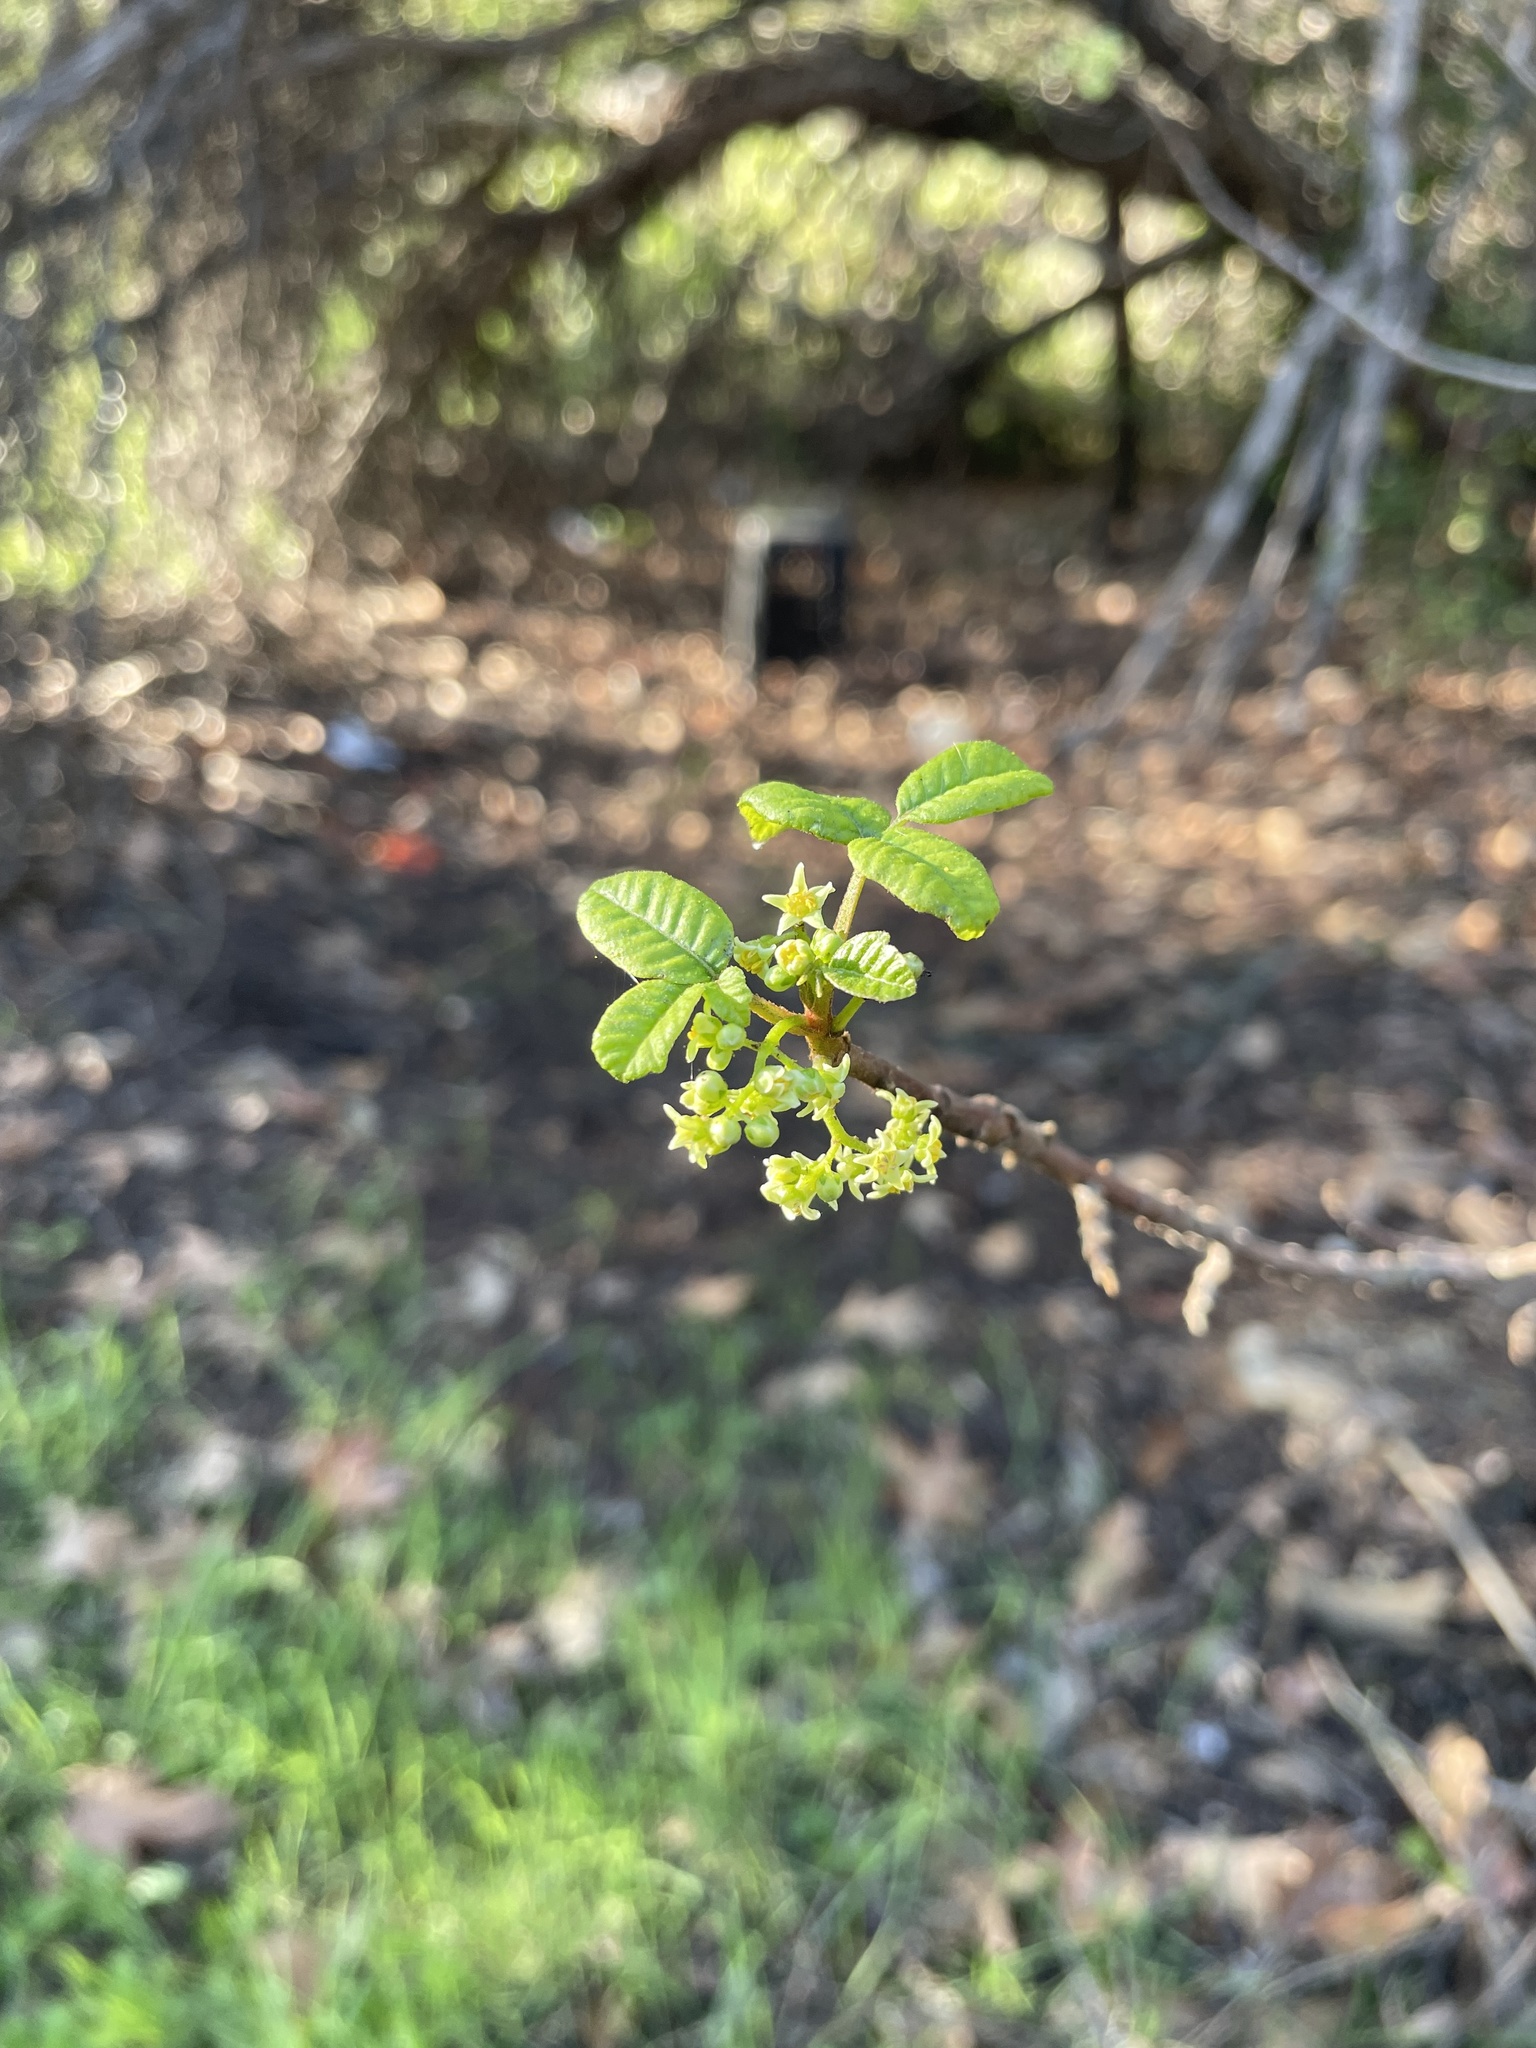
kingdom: Plantae
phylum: Tracheophyta
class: Magnoliopsida
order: Sapindales
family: Anacardiaceae
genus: Toxicodendron
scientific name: Toxicodendron diversilobum
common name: Pacific poison-oak
